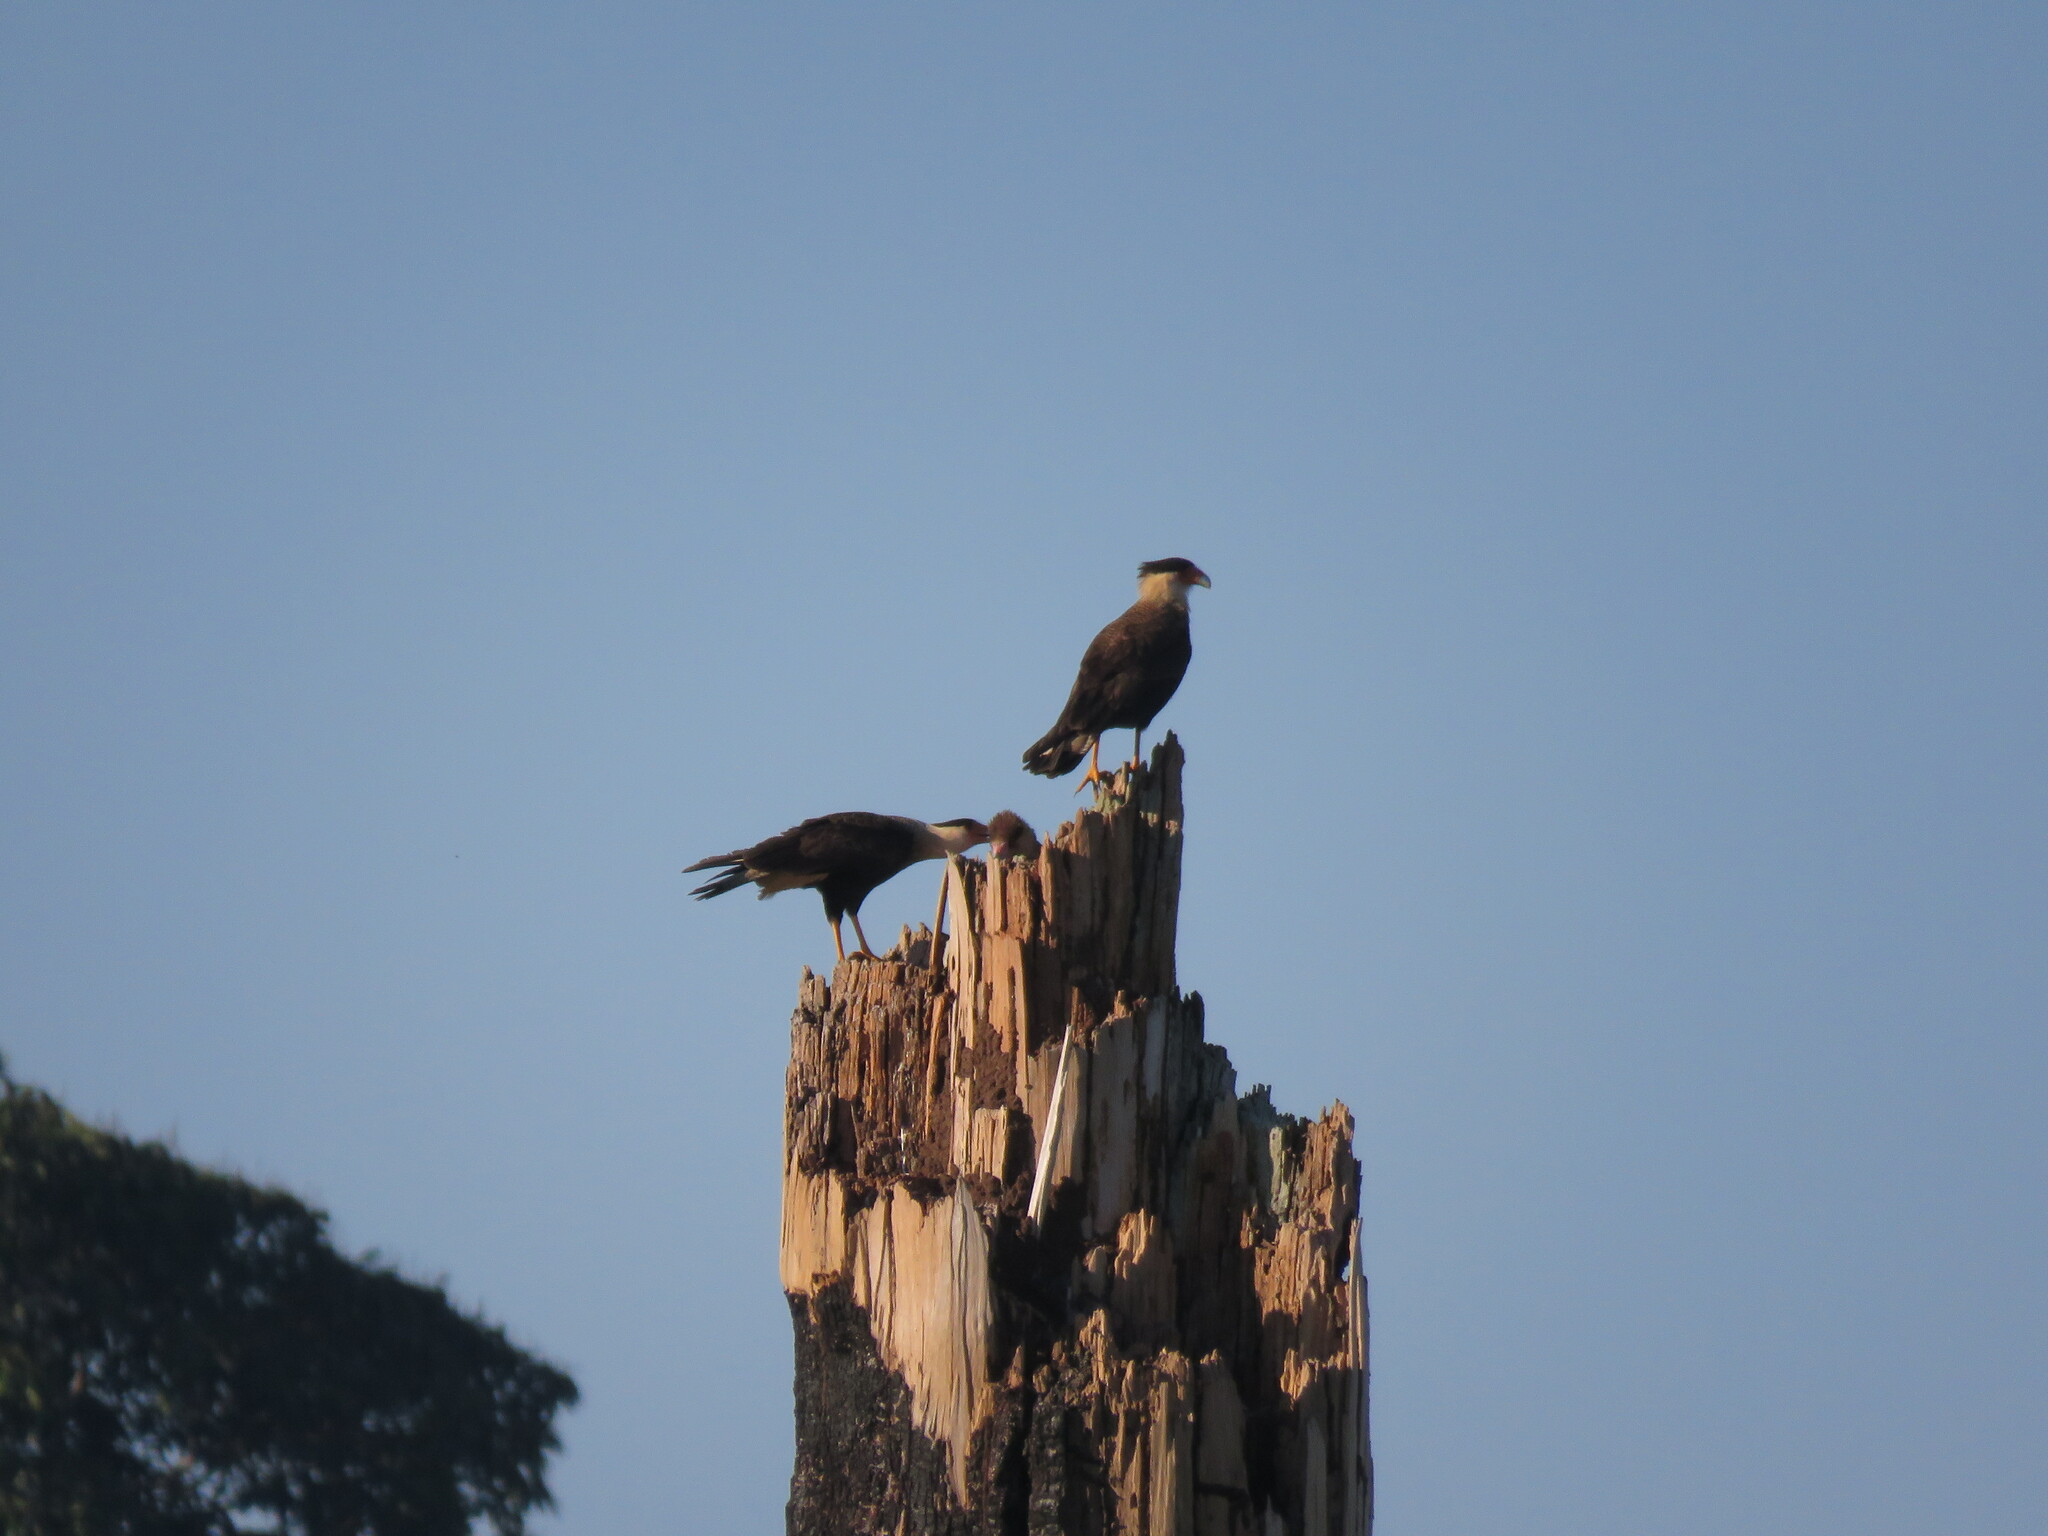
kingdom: Animalia
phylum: Chordata
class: Aves
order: Falconiformes
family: Falconidae
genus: Caracara
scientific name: Caracara plancus
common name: Southern caracara
